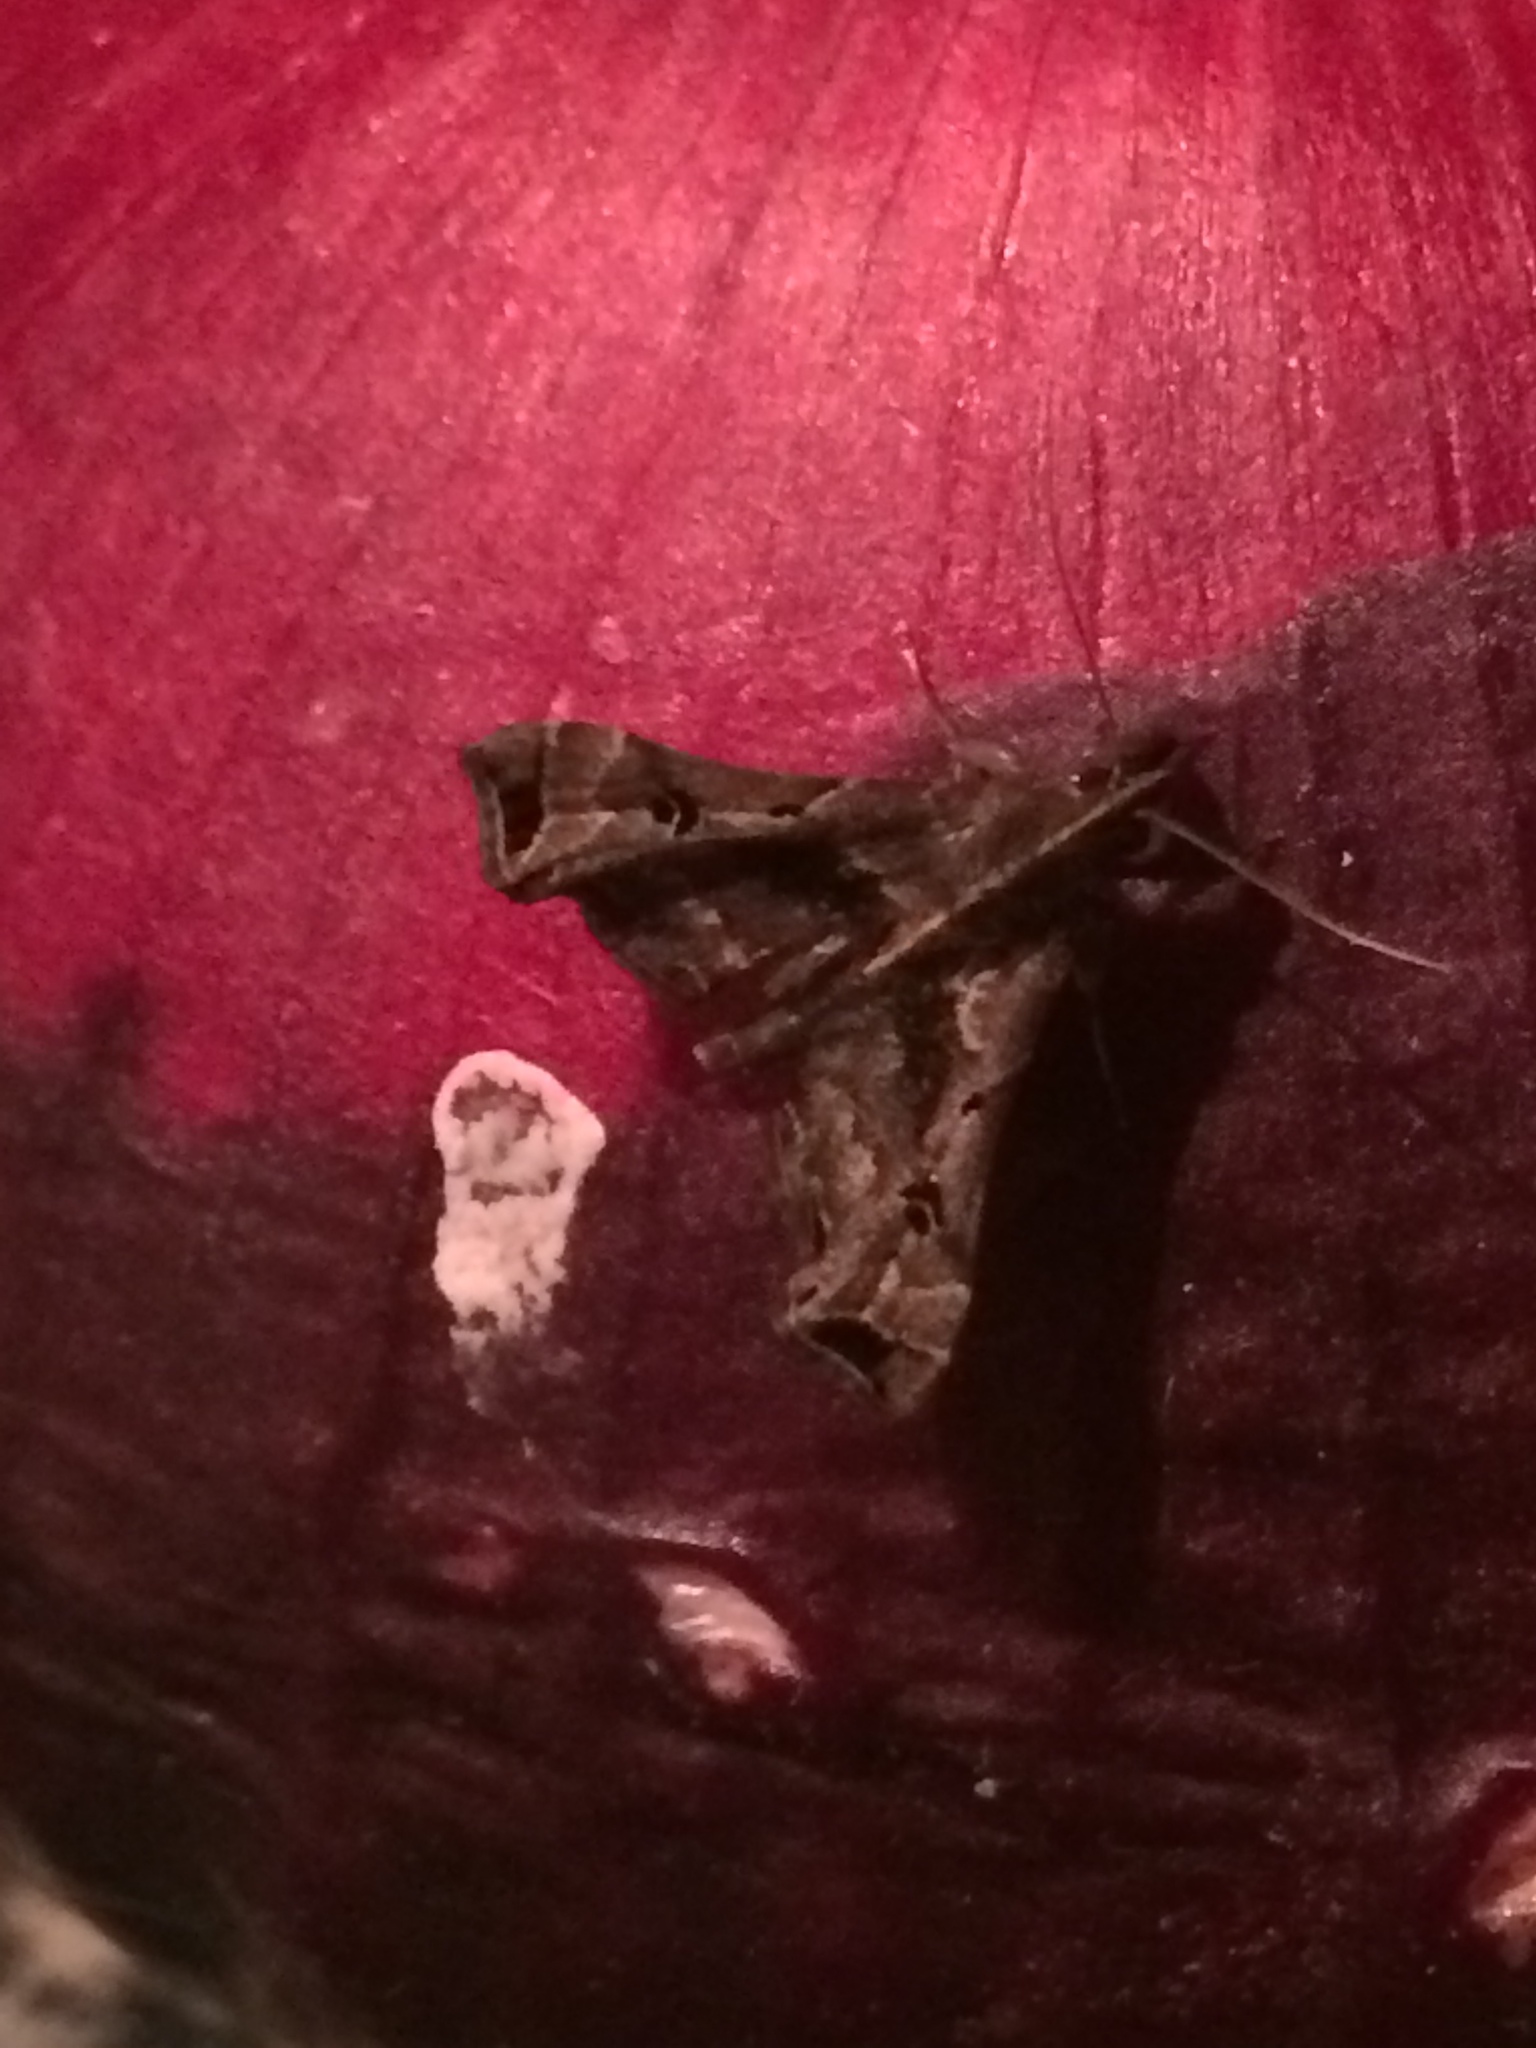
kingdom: Animalia
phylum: Arthropoda
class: Insecta
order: Lepidoptera
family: Erebidae
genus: Palthis
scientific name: Palthis asopialis
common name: Faint-spotted palthis moth
